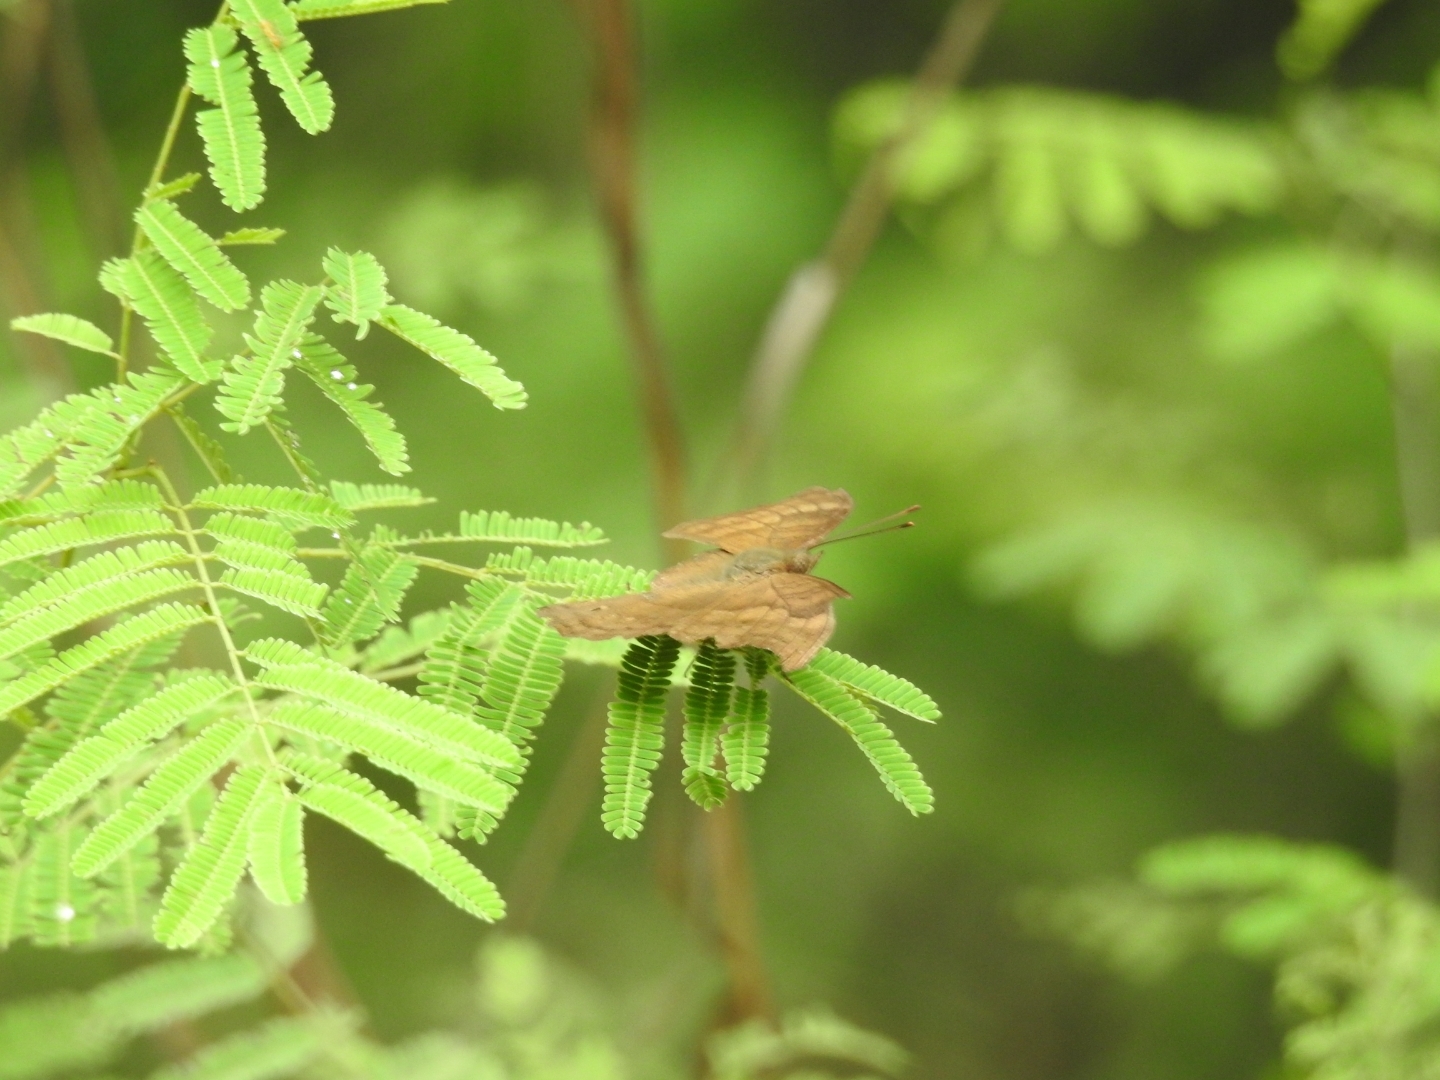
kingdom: Animalia
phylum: Arthropoda
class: Insecta
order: Lepidoptera
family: Nymphalidae
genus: Junonia
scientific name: Junonia iphita
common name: Chocolate pansy
